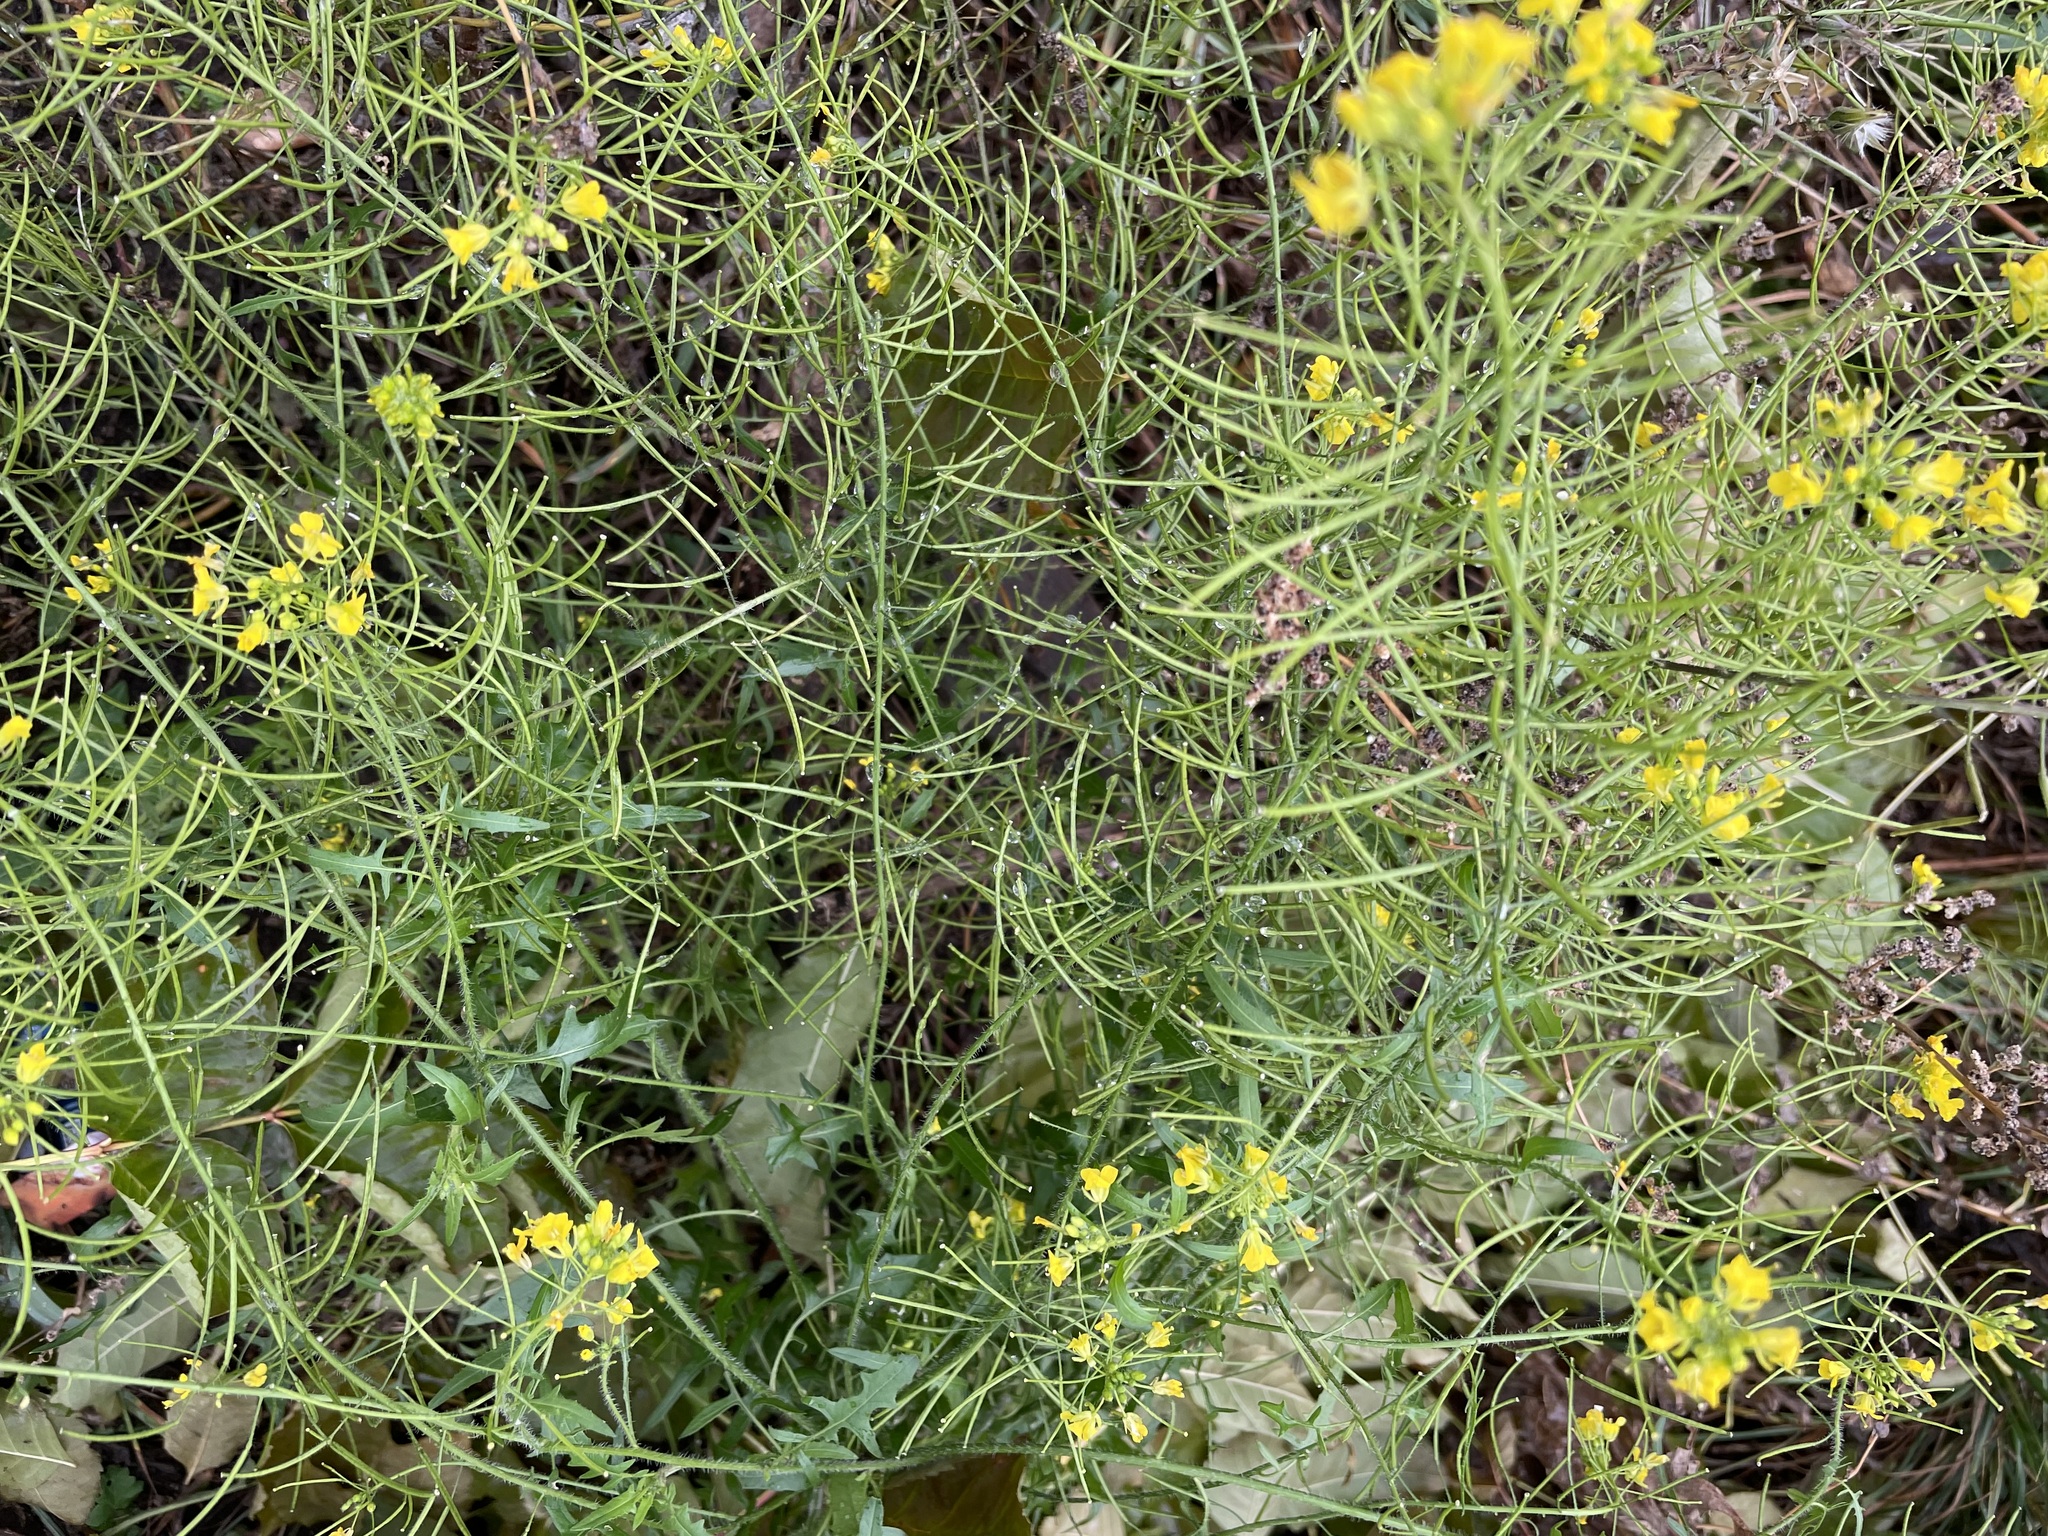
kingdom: Plantae
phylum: Tracheophyta
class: Magnoliopsida
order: Brassicales
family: Brassicaceae
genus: Sisymbrium
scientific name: Sisymbrium loeselii
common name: False london-rocket
